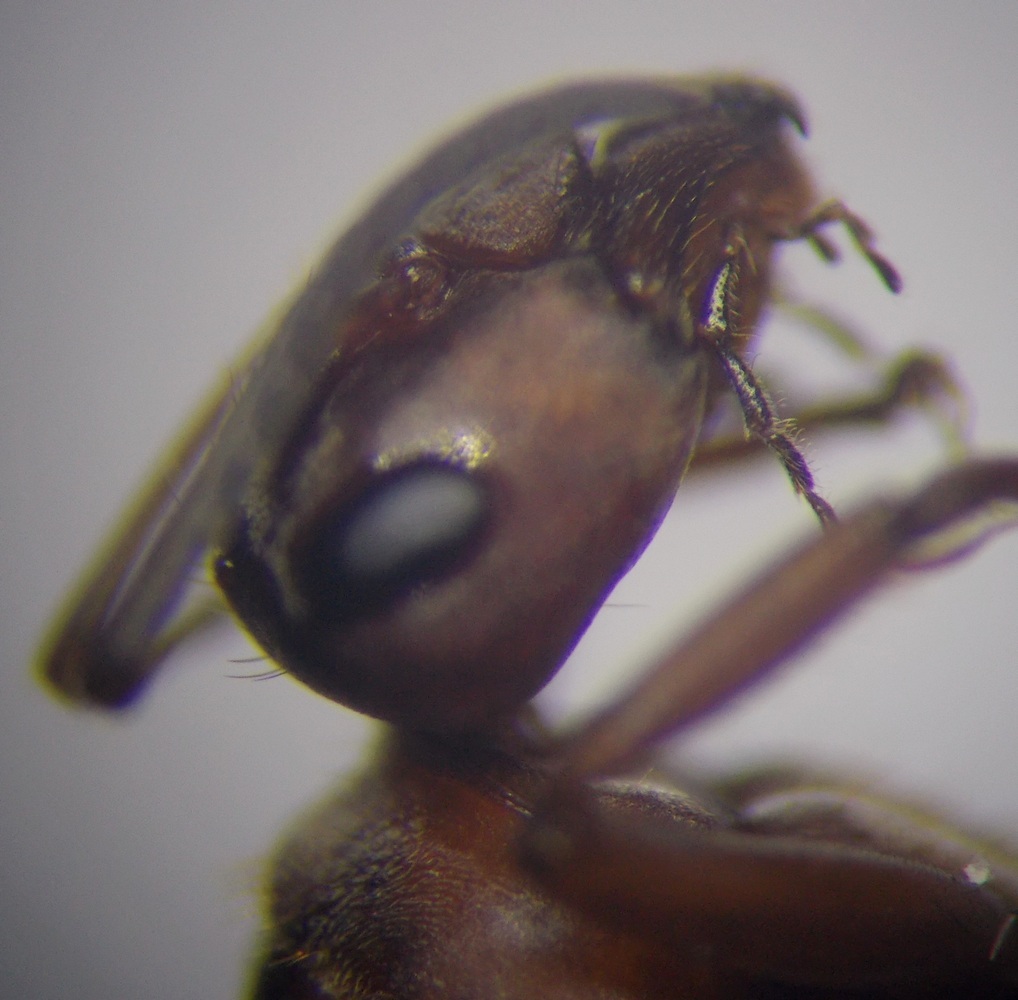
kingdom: Animalia
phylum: Arthropoda
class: Insecta
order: Hymenoptera
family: Formicidae
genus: Formica
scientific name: Formica subpilosa
